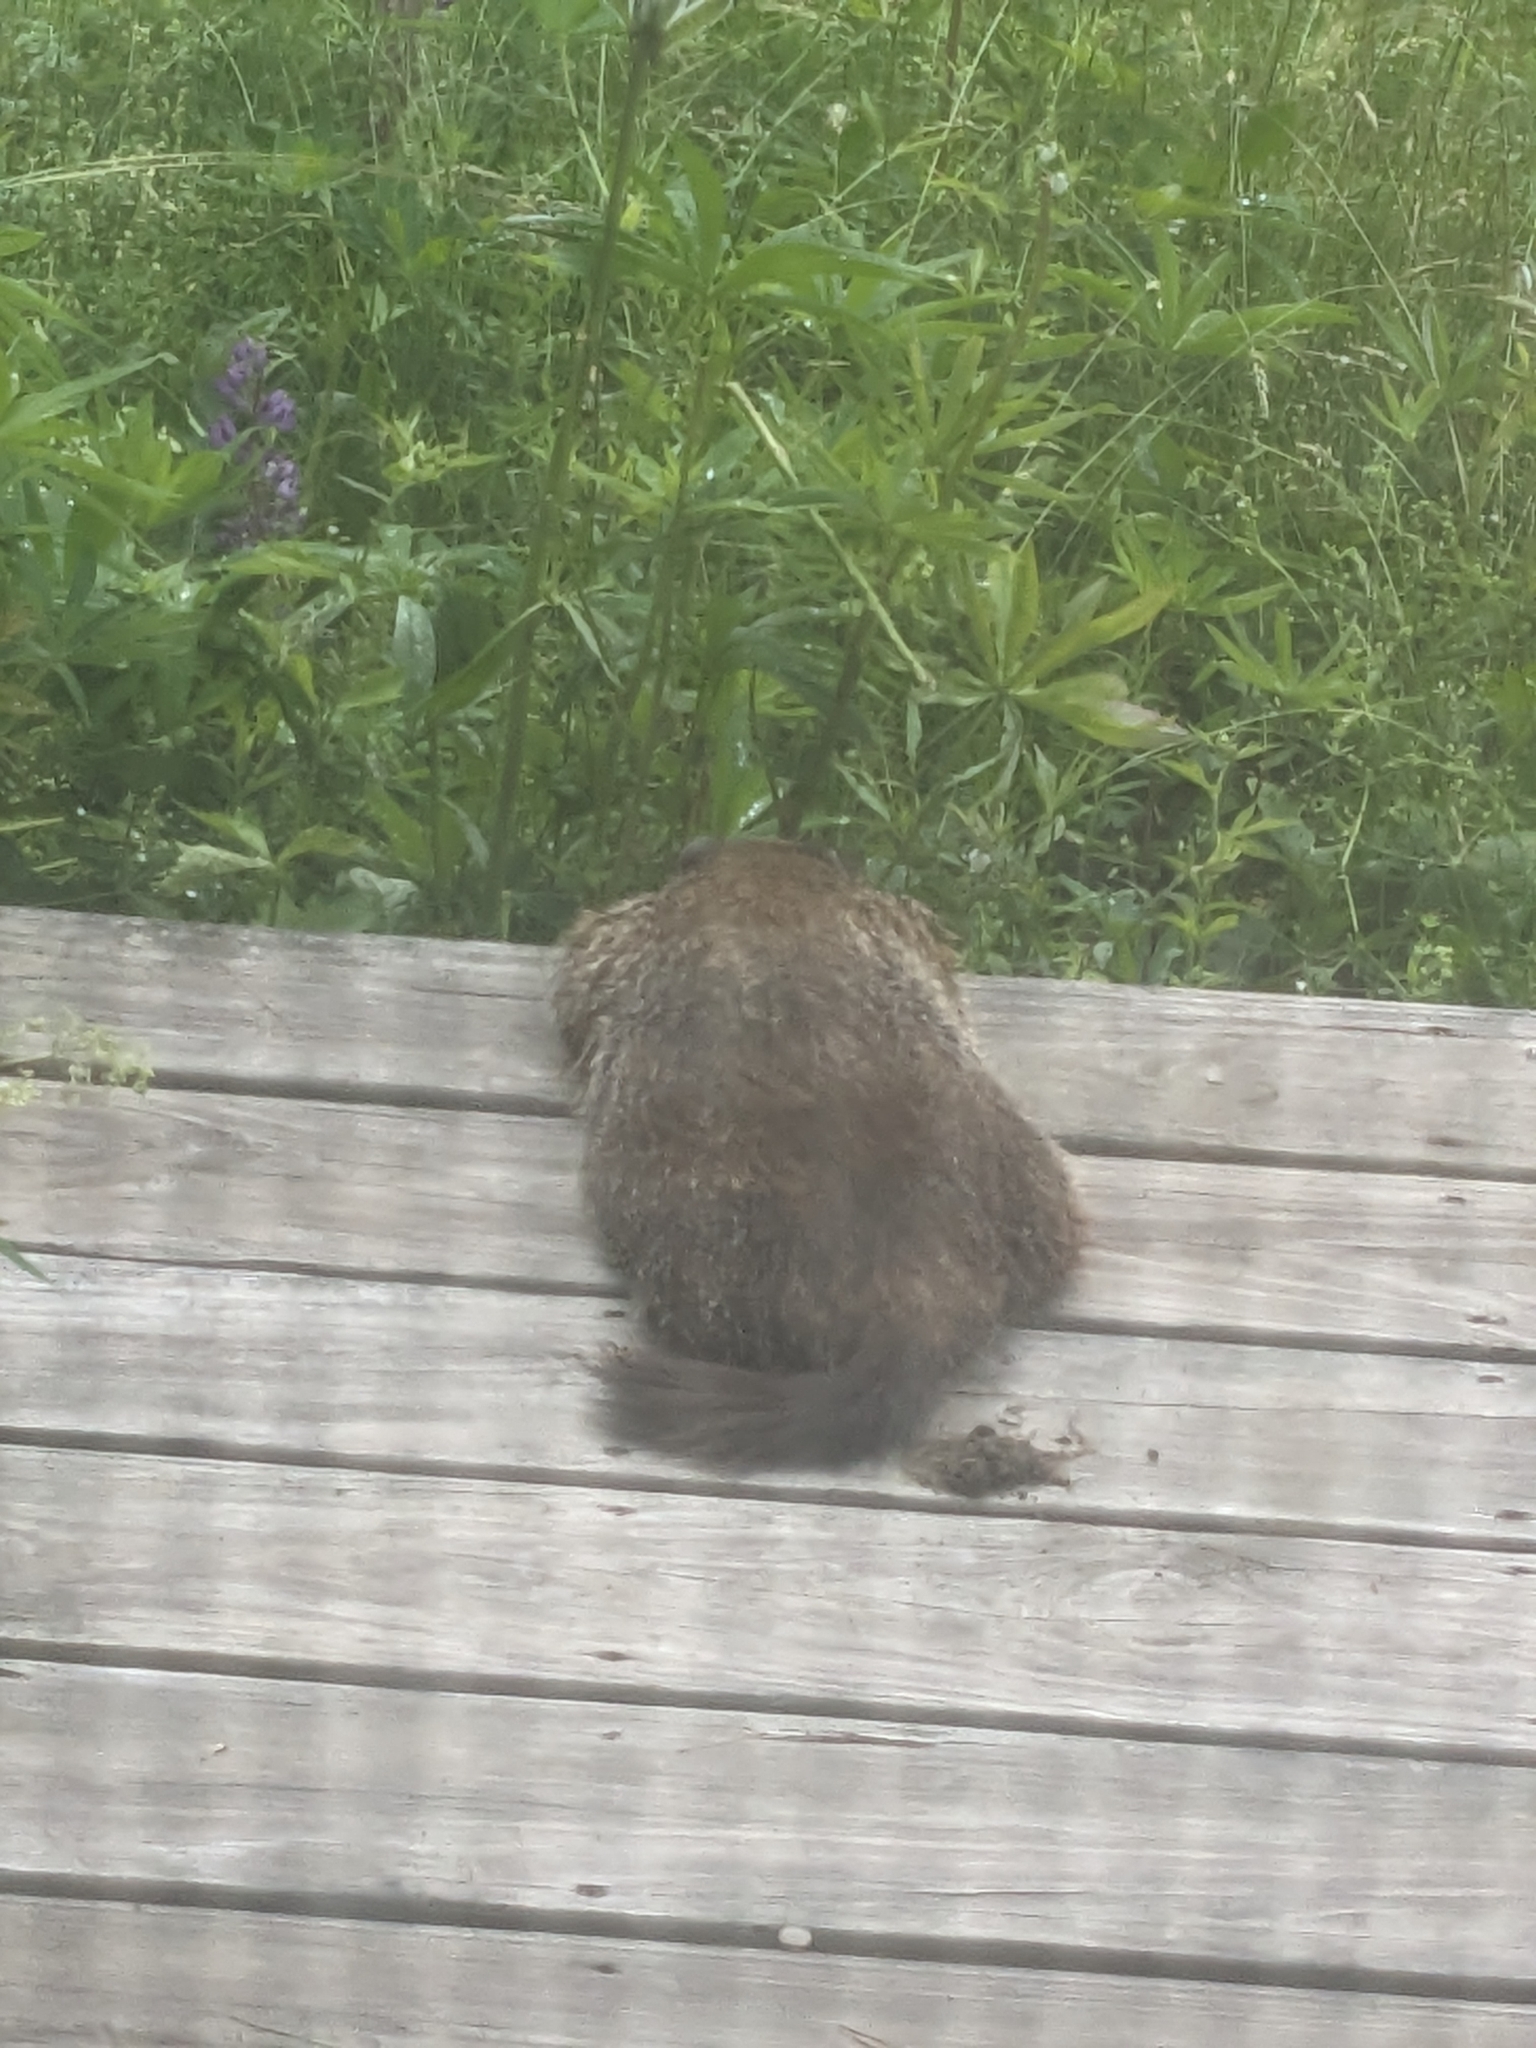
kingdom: Animalia
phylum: Chordata
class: Mammalia
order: Rodentia
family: Sciuridae
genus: Marmota
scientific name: Marmota monax
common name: Groundhog
